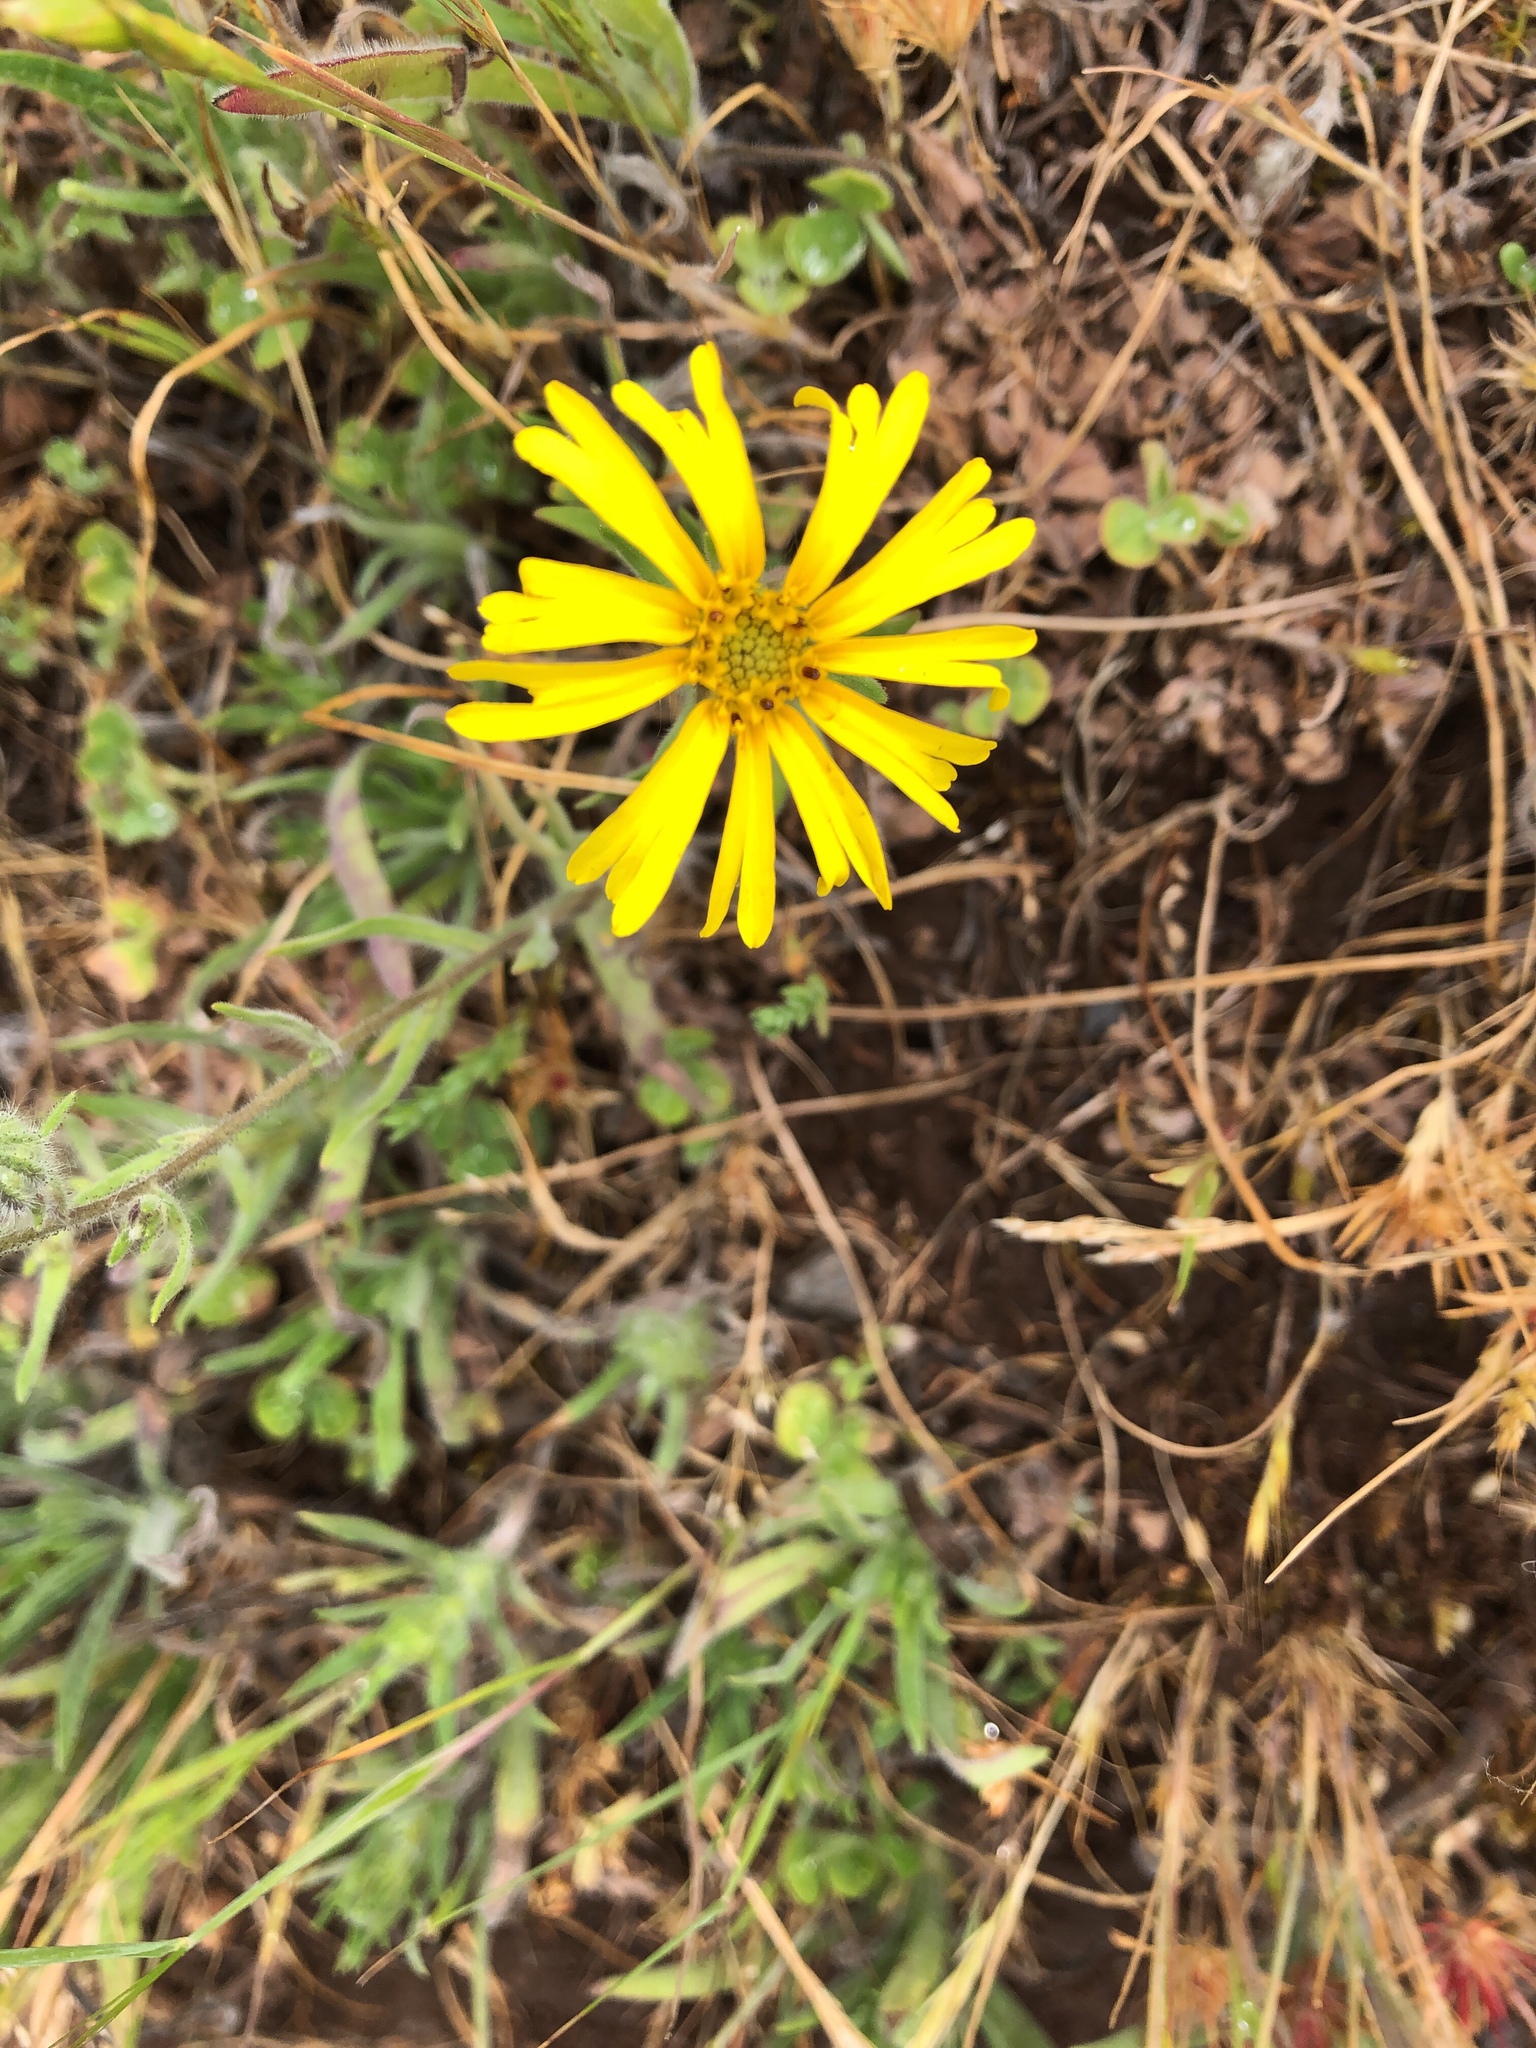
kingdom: Plantae
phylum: Tracheophyta
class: Magnoliopsida
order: Asterales
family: Asteraceae
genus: Madia
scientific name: Madia elegans
